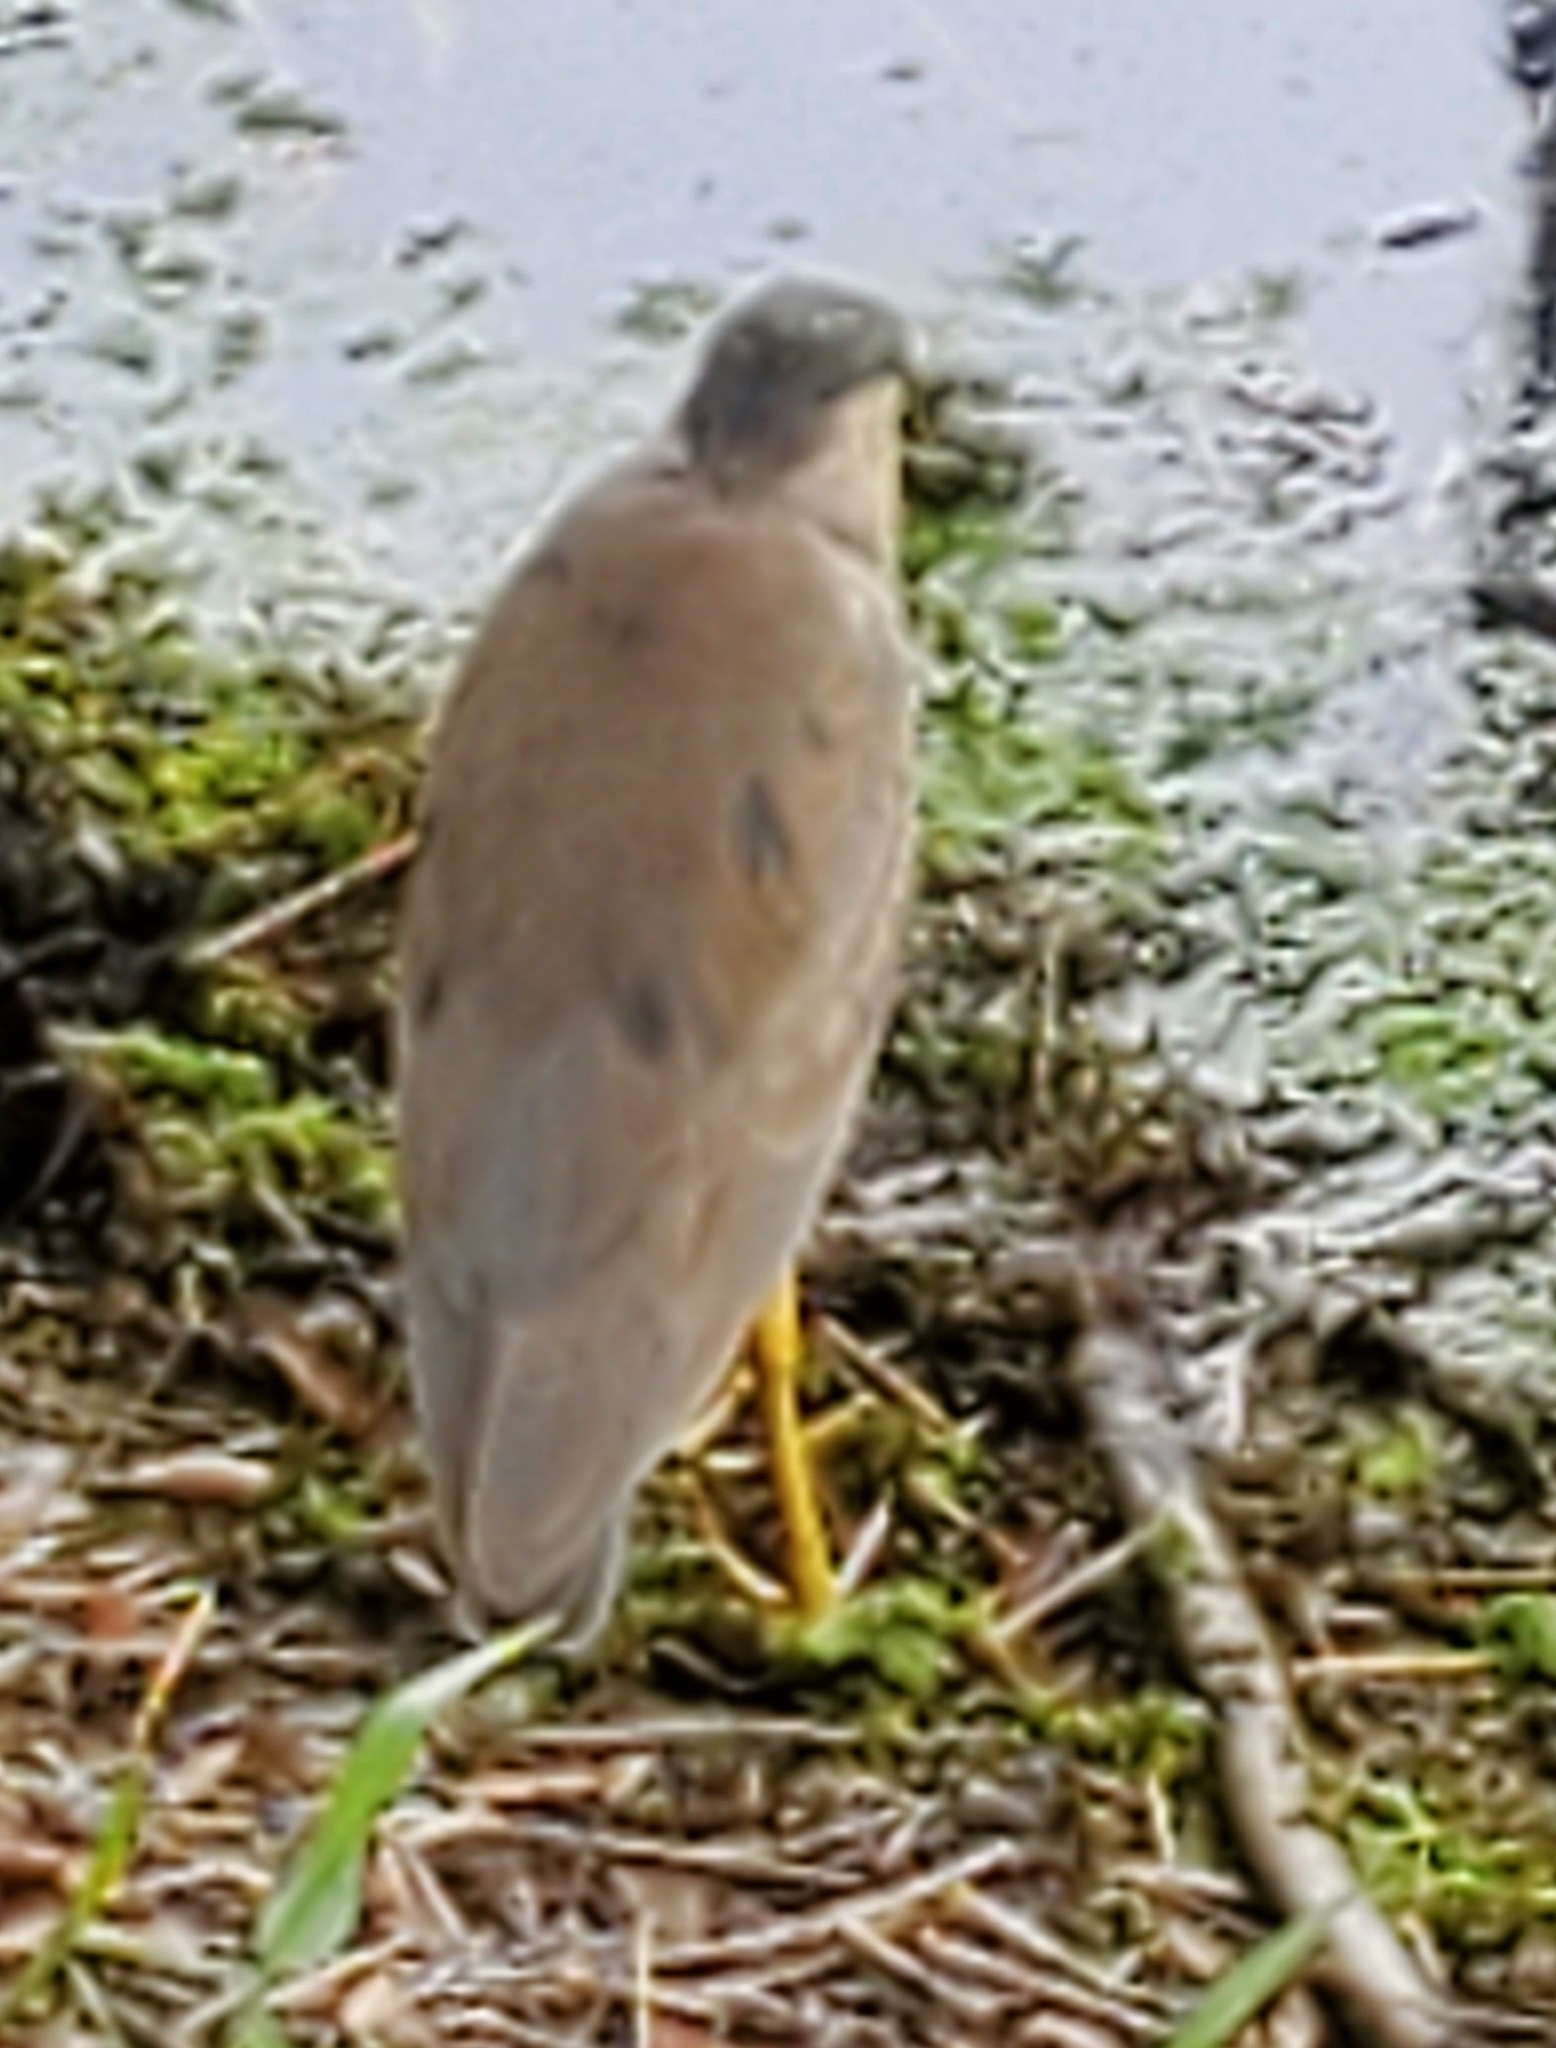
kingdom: Animalia
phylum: Chordata
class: Aves
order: Pelecaniformes
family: Ardeidae
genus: Nycticorax
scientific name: Nycticorax nycticorax
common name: Black-crowned night heron
